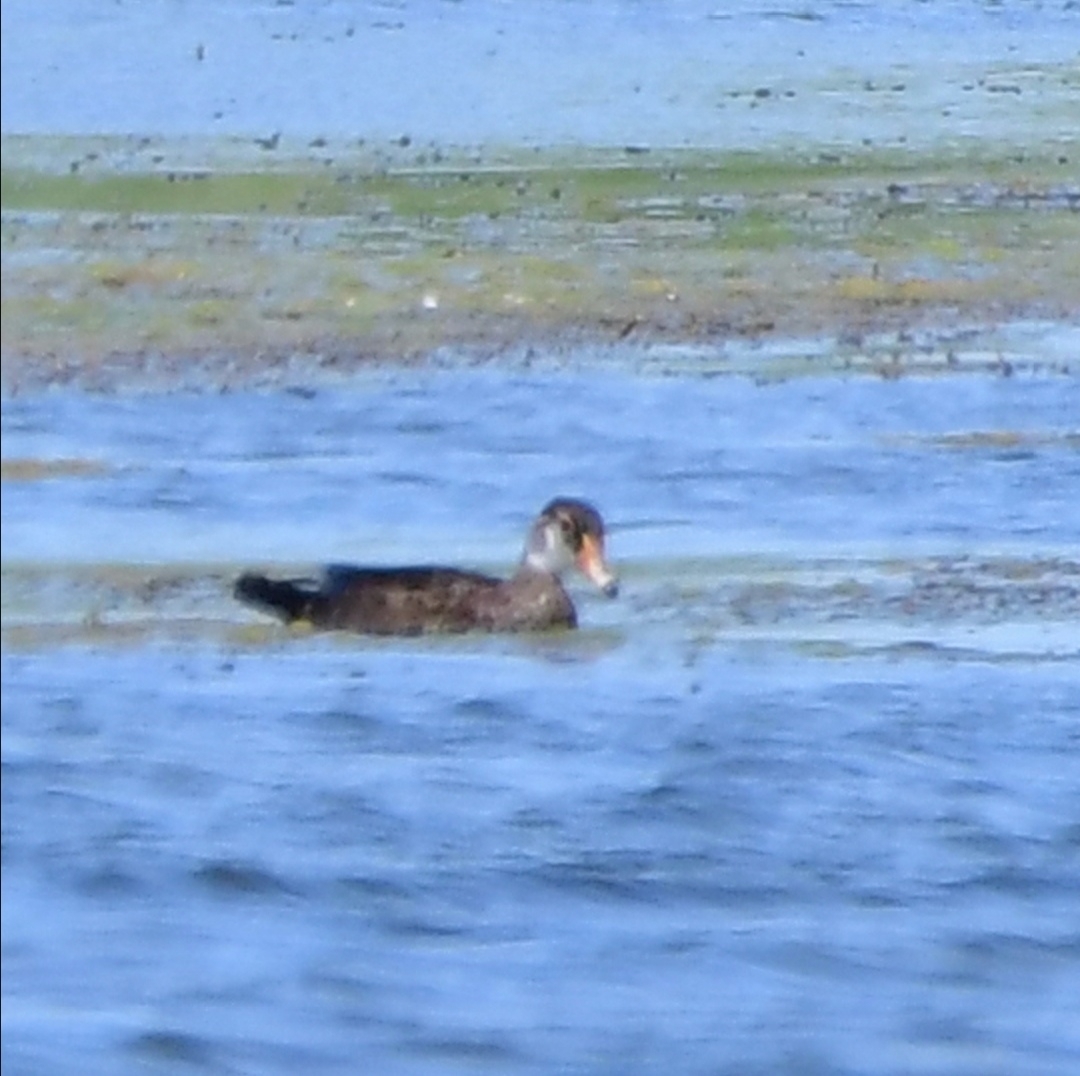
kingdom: Animalia
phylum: Chordata
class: Aves
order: Anseriformes
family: Anatidae
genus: Mareca
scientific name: Mareca americana
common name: American wigeon
